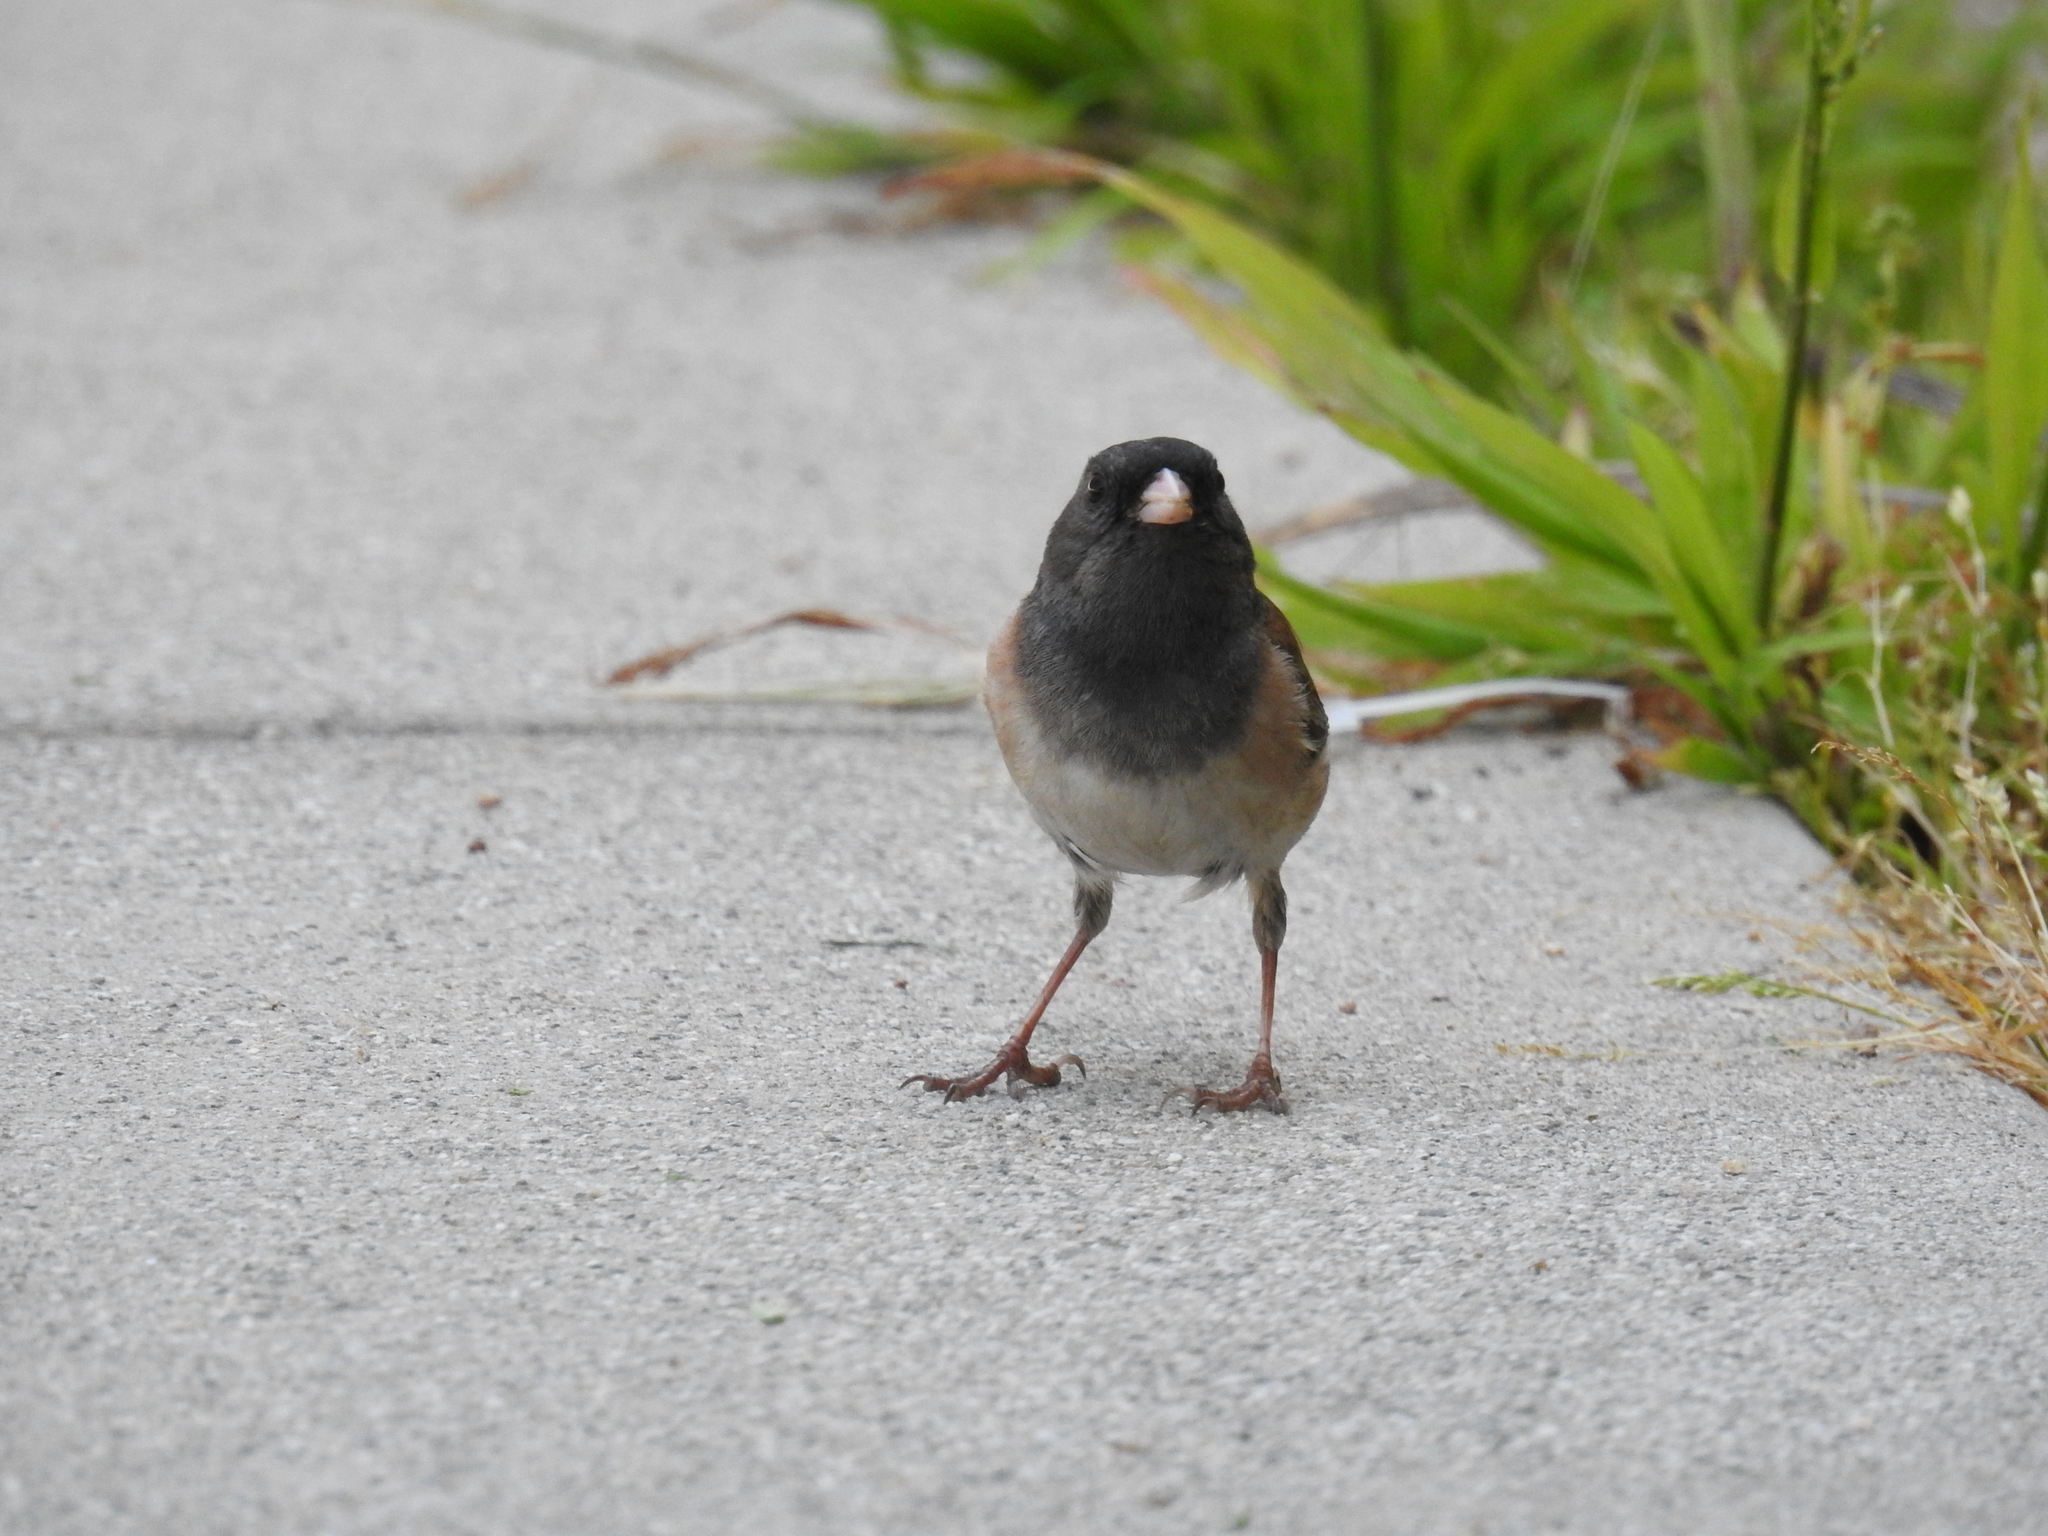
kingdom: Animalia
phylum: Chordata
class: Aves
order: Passeriformes
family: Passerellidae
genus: Junco
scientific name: Junco hyemalis
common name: Dark-eyed junco
